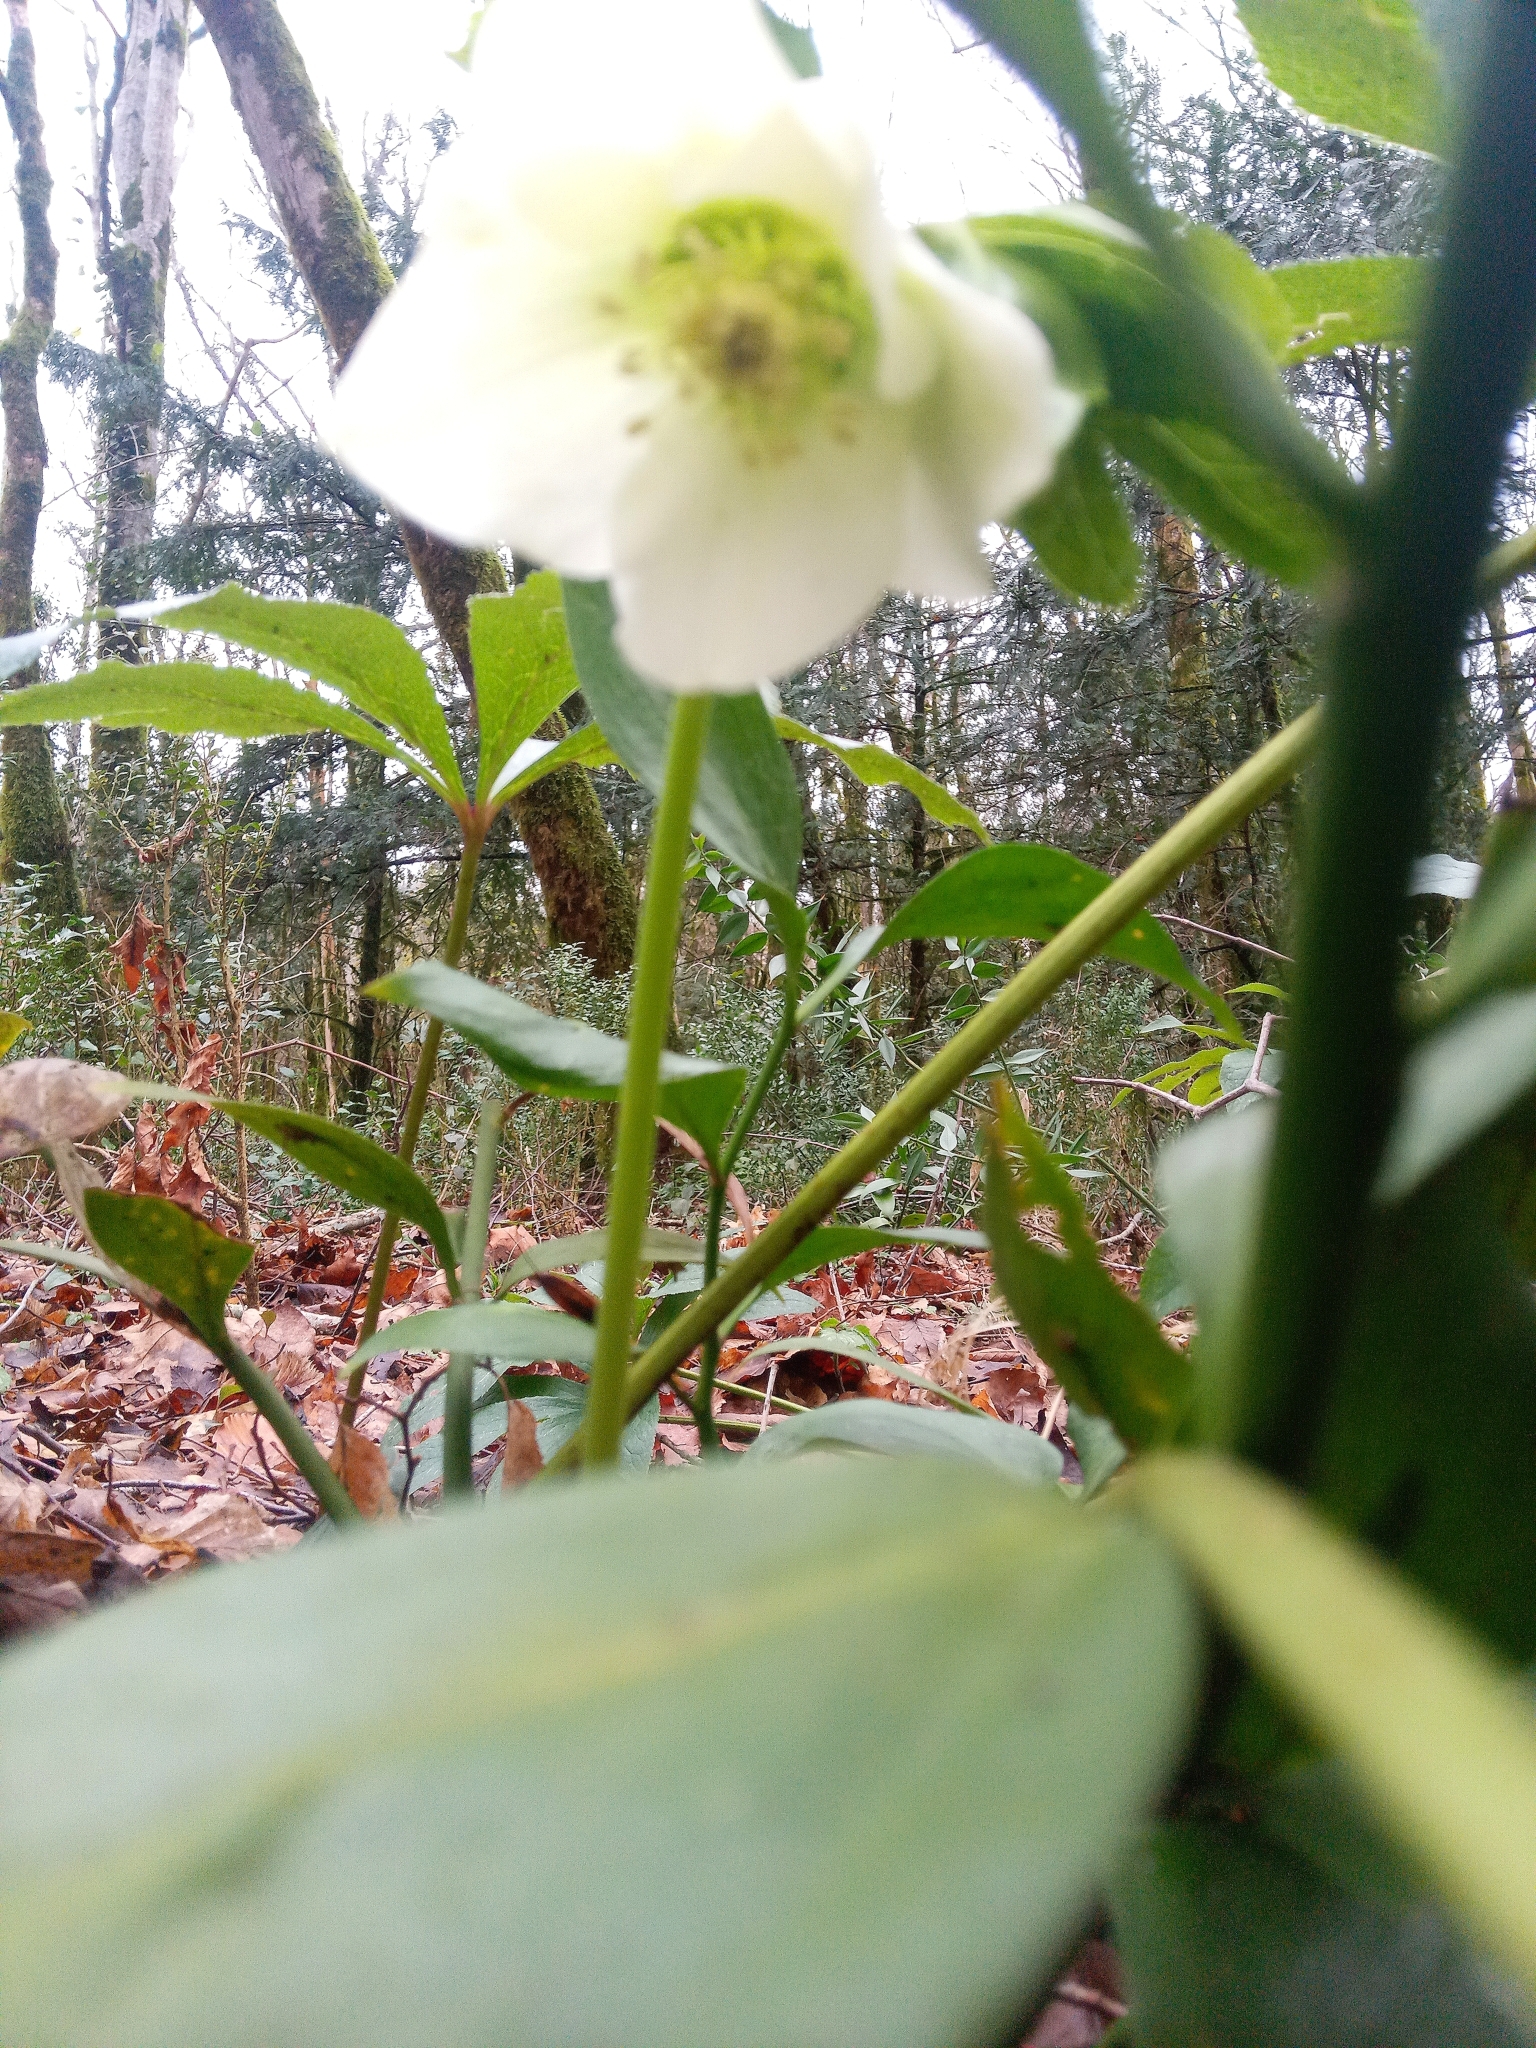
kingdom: Plantae
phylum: Tracheophyta
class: Magnoliopsida
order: Ranunculales
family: Ranunculaceae
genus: Helleborus
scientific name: Helleborus orientalis
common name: Lenten-rose
